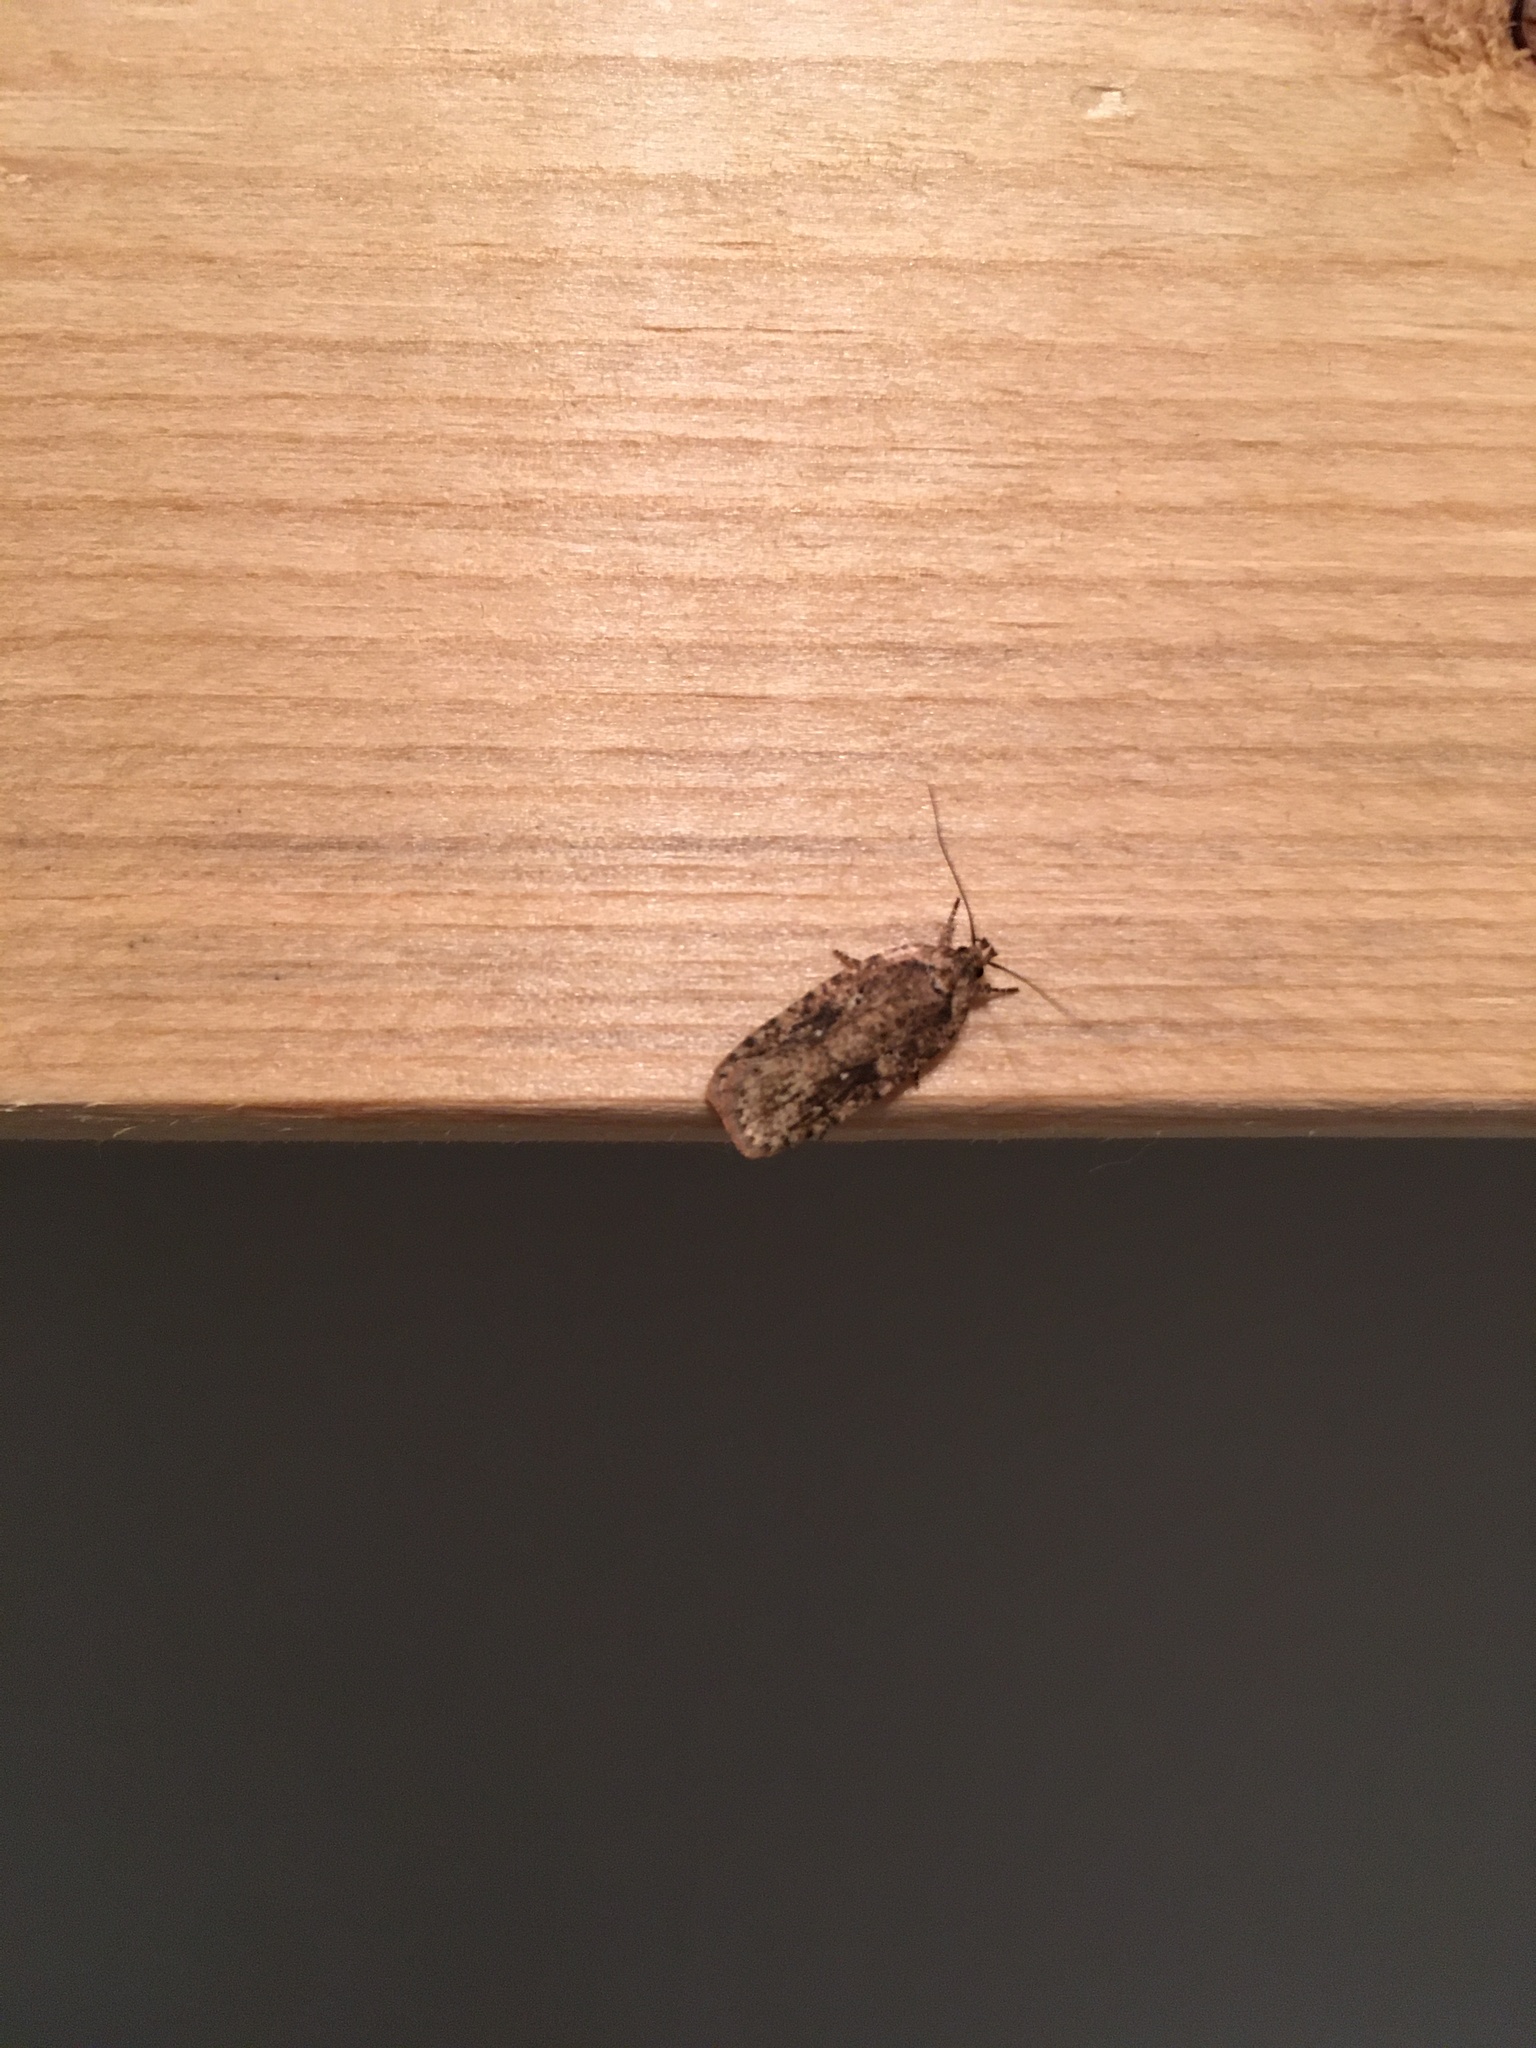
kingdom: Animalia
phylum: Arthropoda
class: Insecta
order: Lepidoptera
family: Depressariidae
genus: Agonopterix
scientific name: Agonopterix pulvipennella
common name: Goldenrod leafffolder
